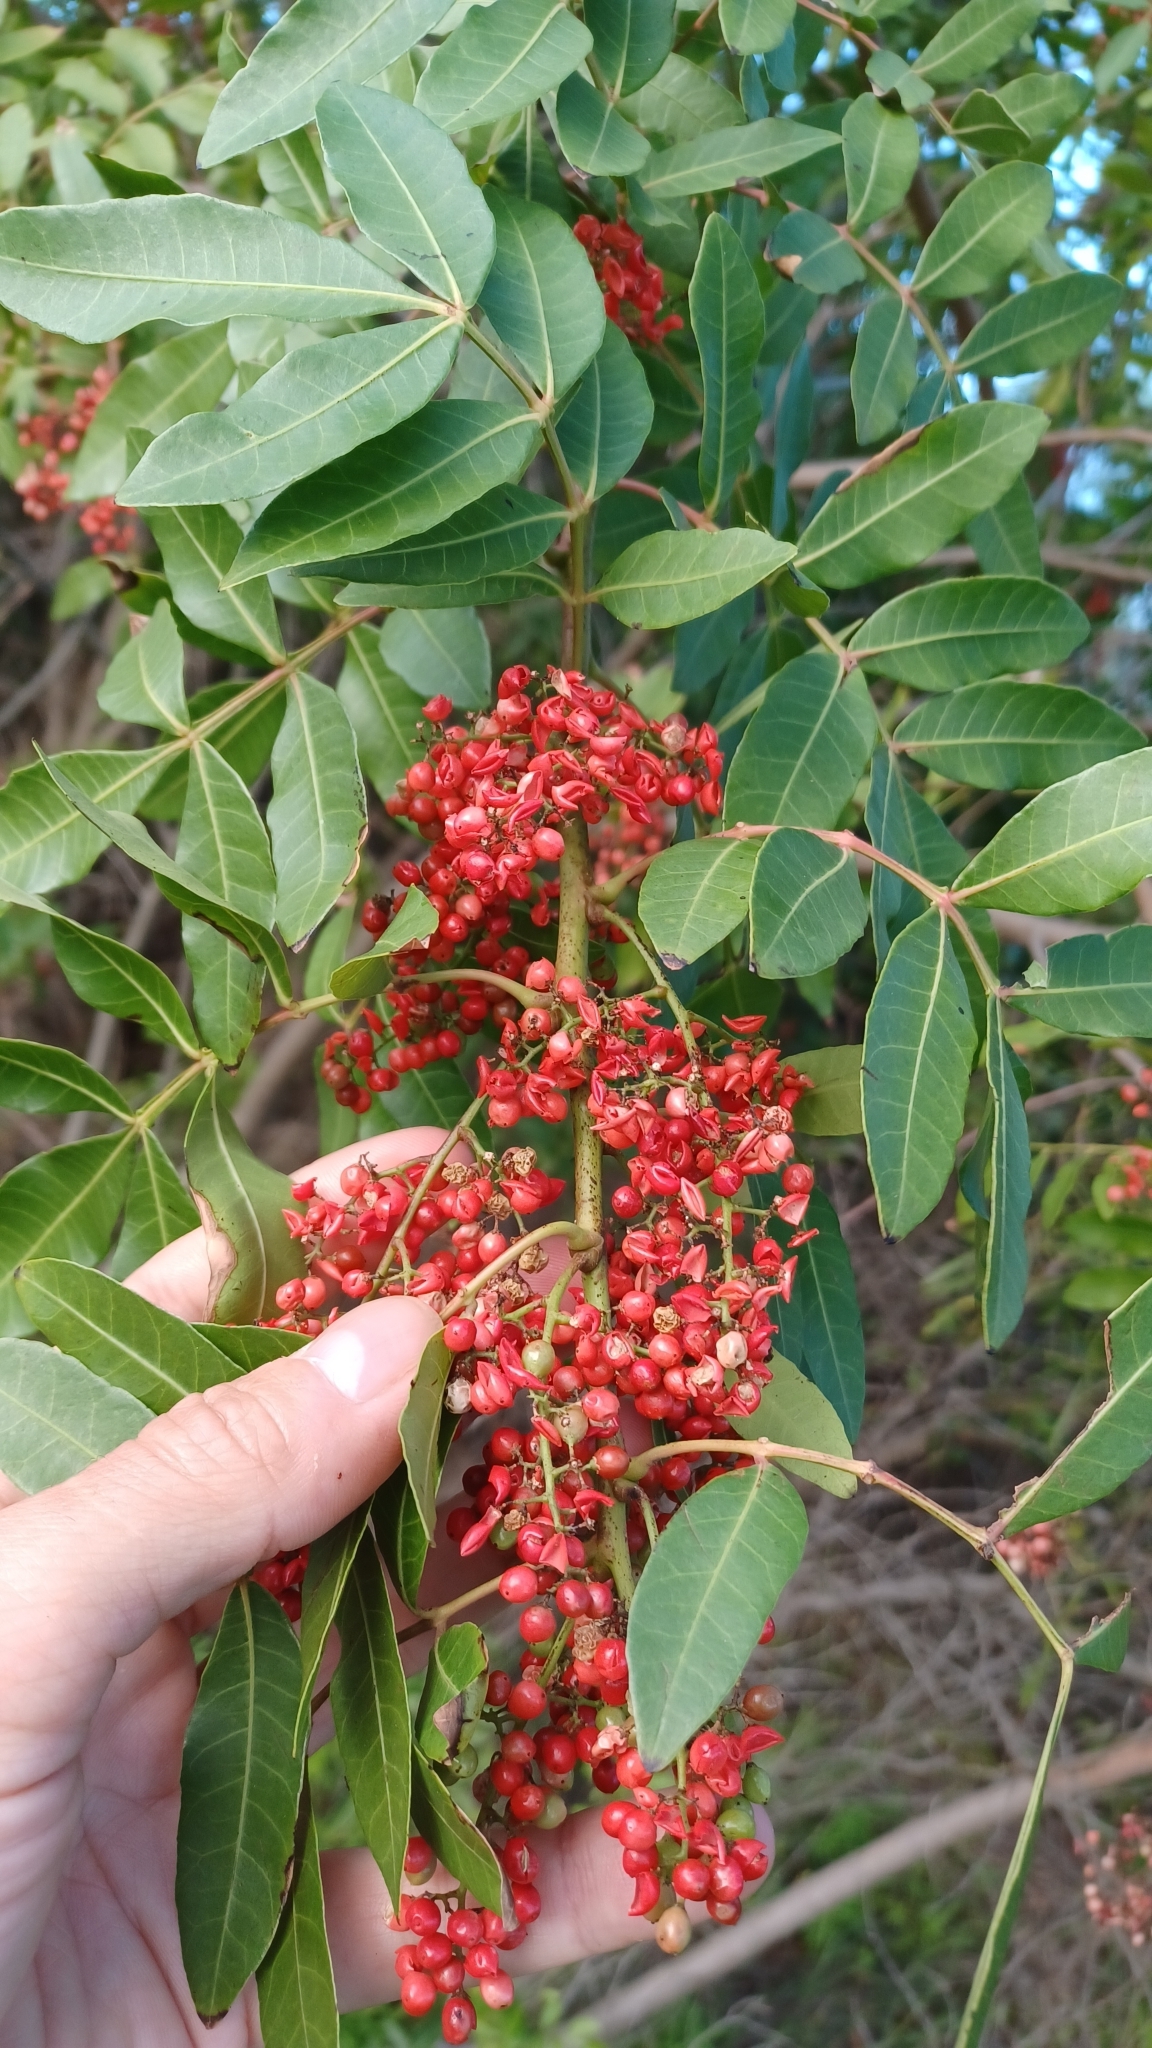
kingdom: Plantae
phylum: Tracheophyta
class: Magnoliopsida
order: Sapindales
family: Anacardiaceae
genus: Schinus
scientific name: Schinus terebinthifolia
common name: Brazilian peppertree
